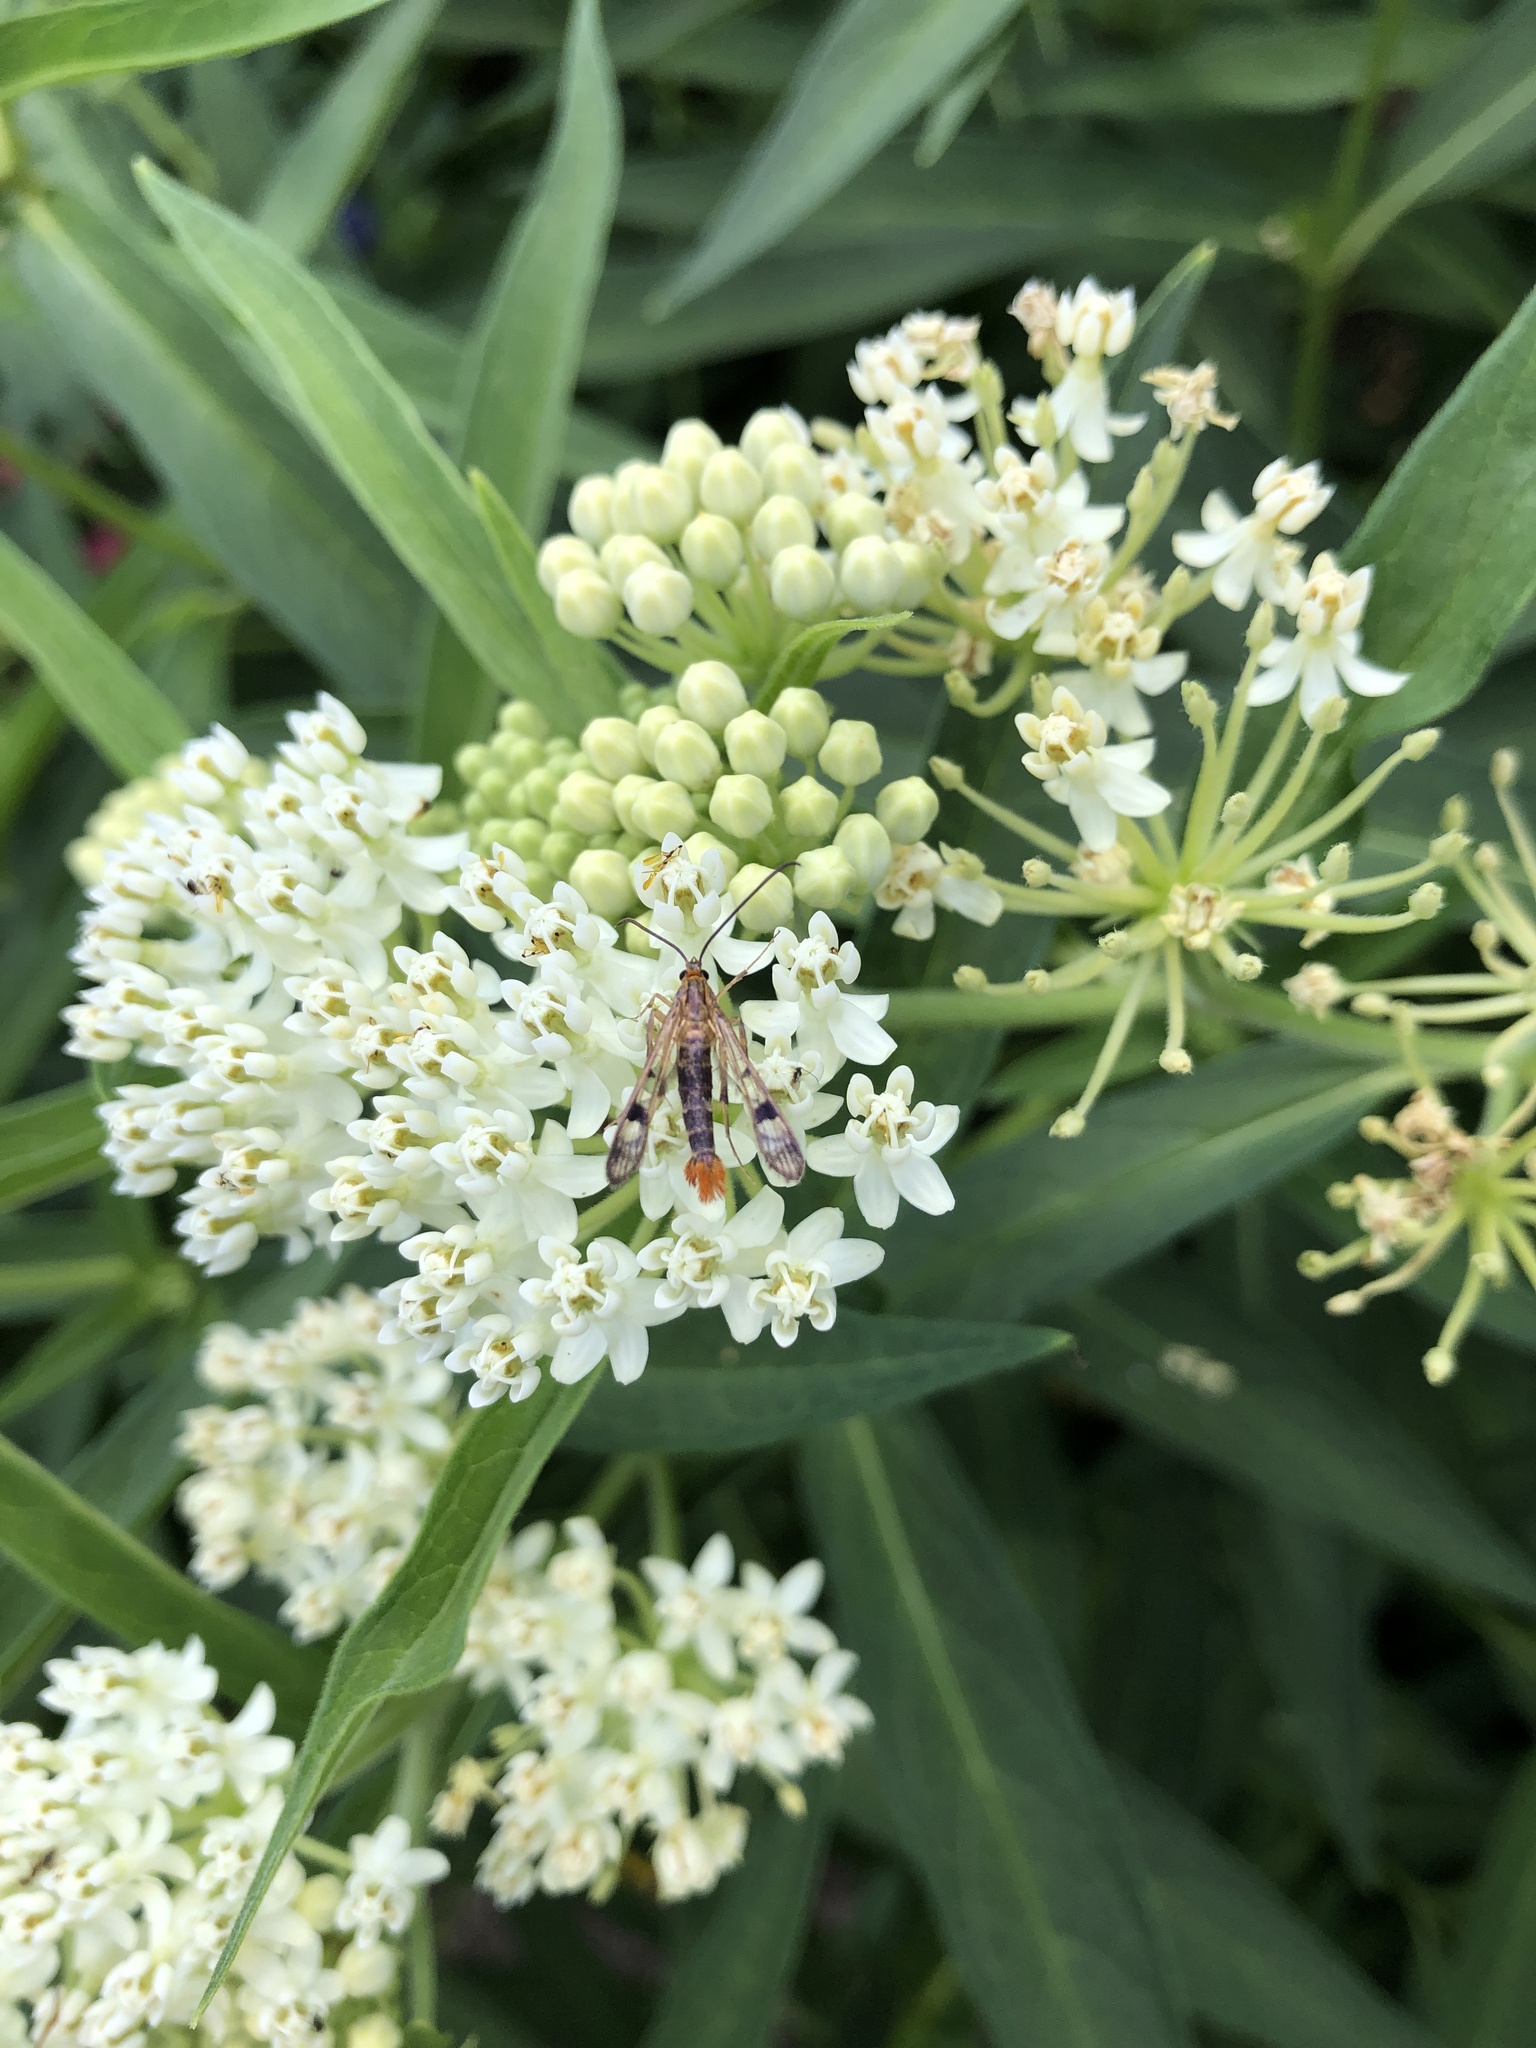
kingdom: Animalia
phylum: Arthropoda
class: Insecta
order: Lepidoptera
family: Sesiidae
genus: Synanthedon
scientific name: Synanthedon acerni
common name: Maple callus borer moth
